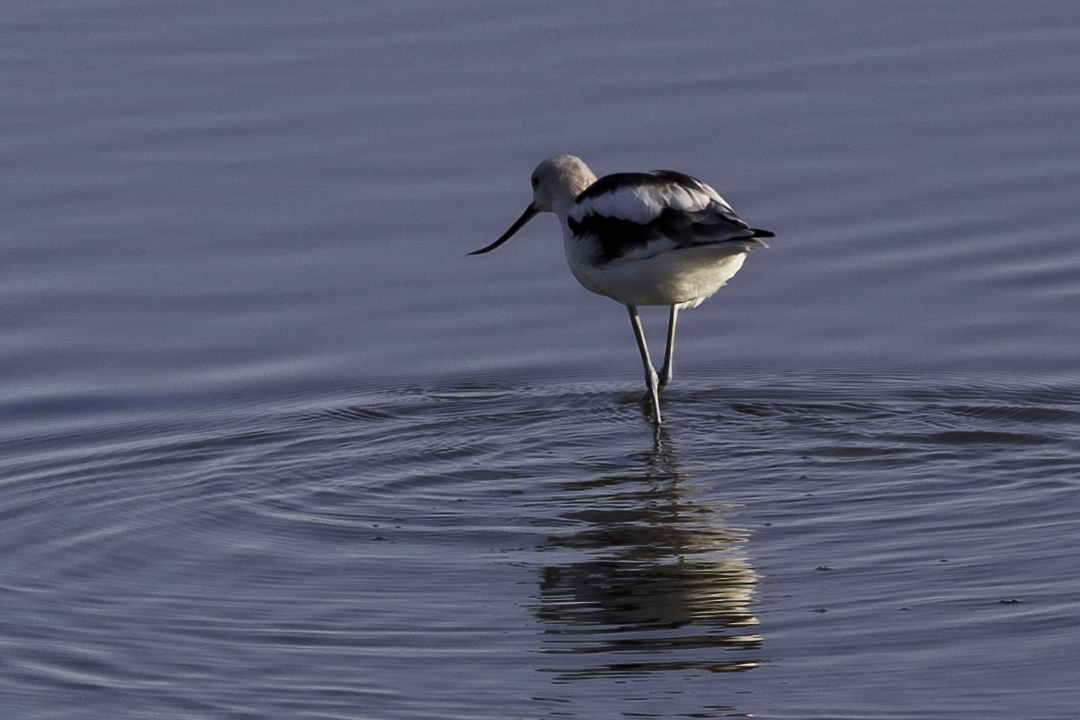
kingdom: Animalia
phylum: Chordata
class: Aves
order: Charadriiformes
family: Recurvirostridae
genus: Recurvirostra
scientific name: Recurvirostra americana
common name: American avocet
